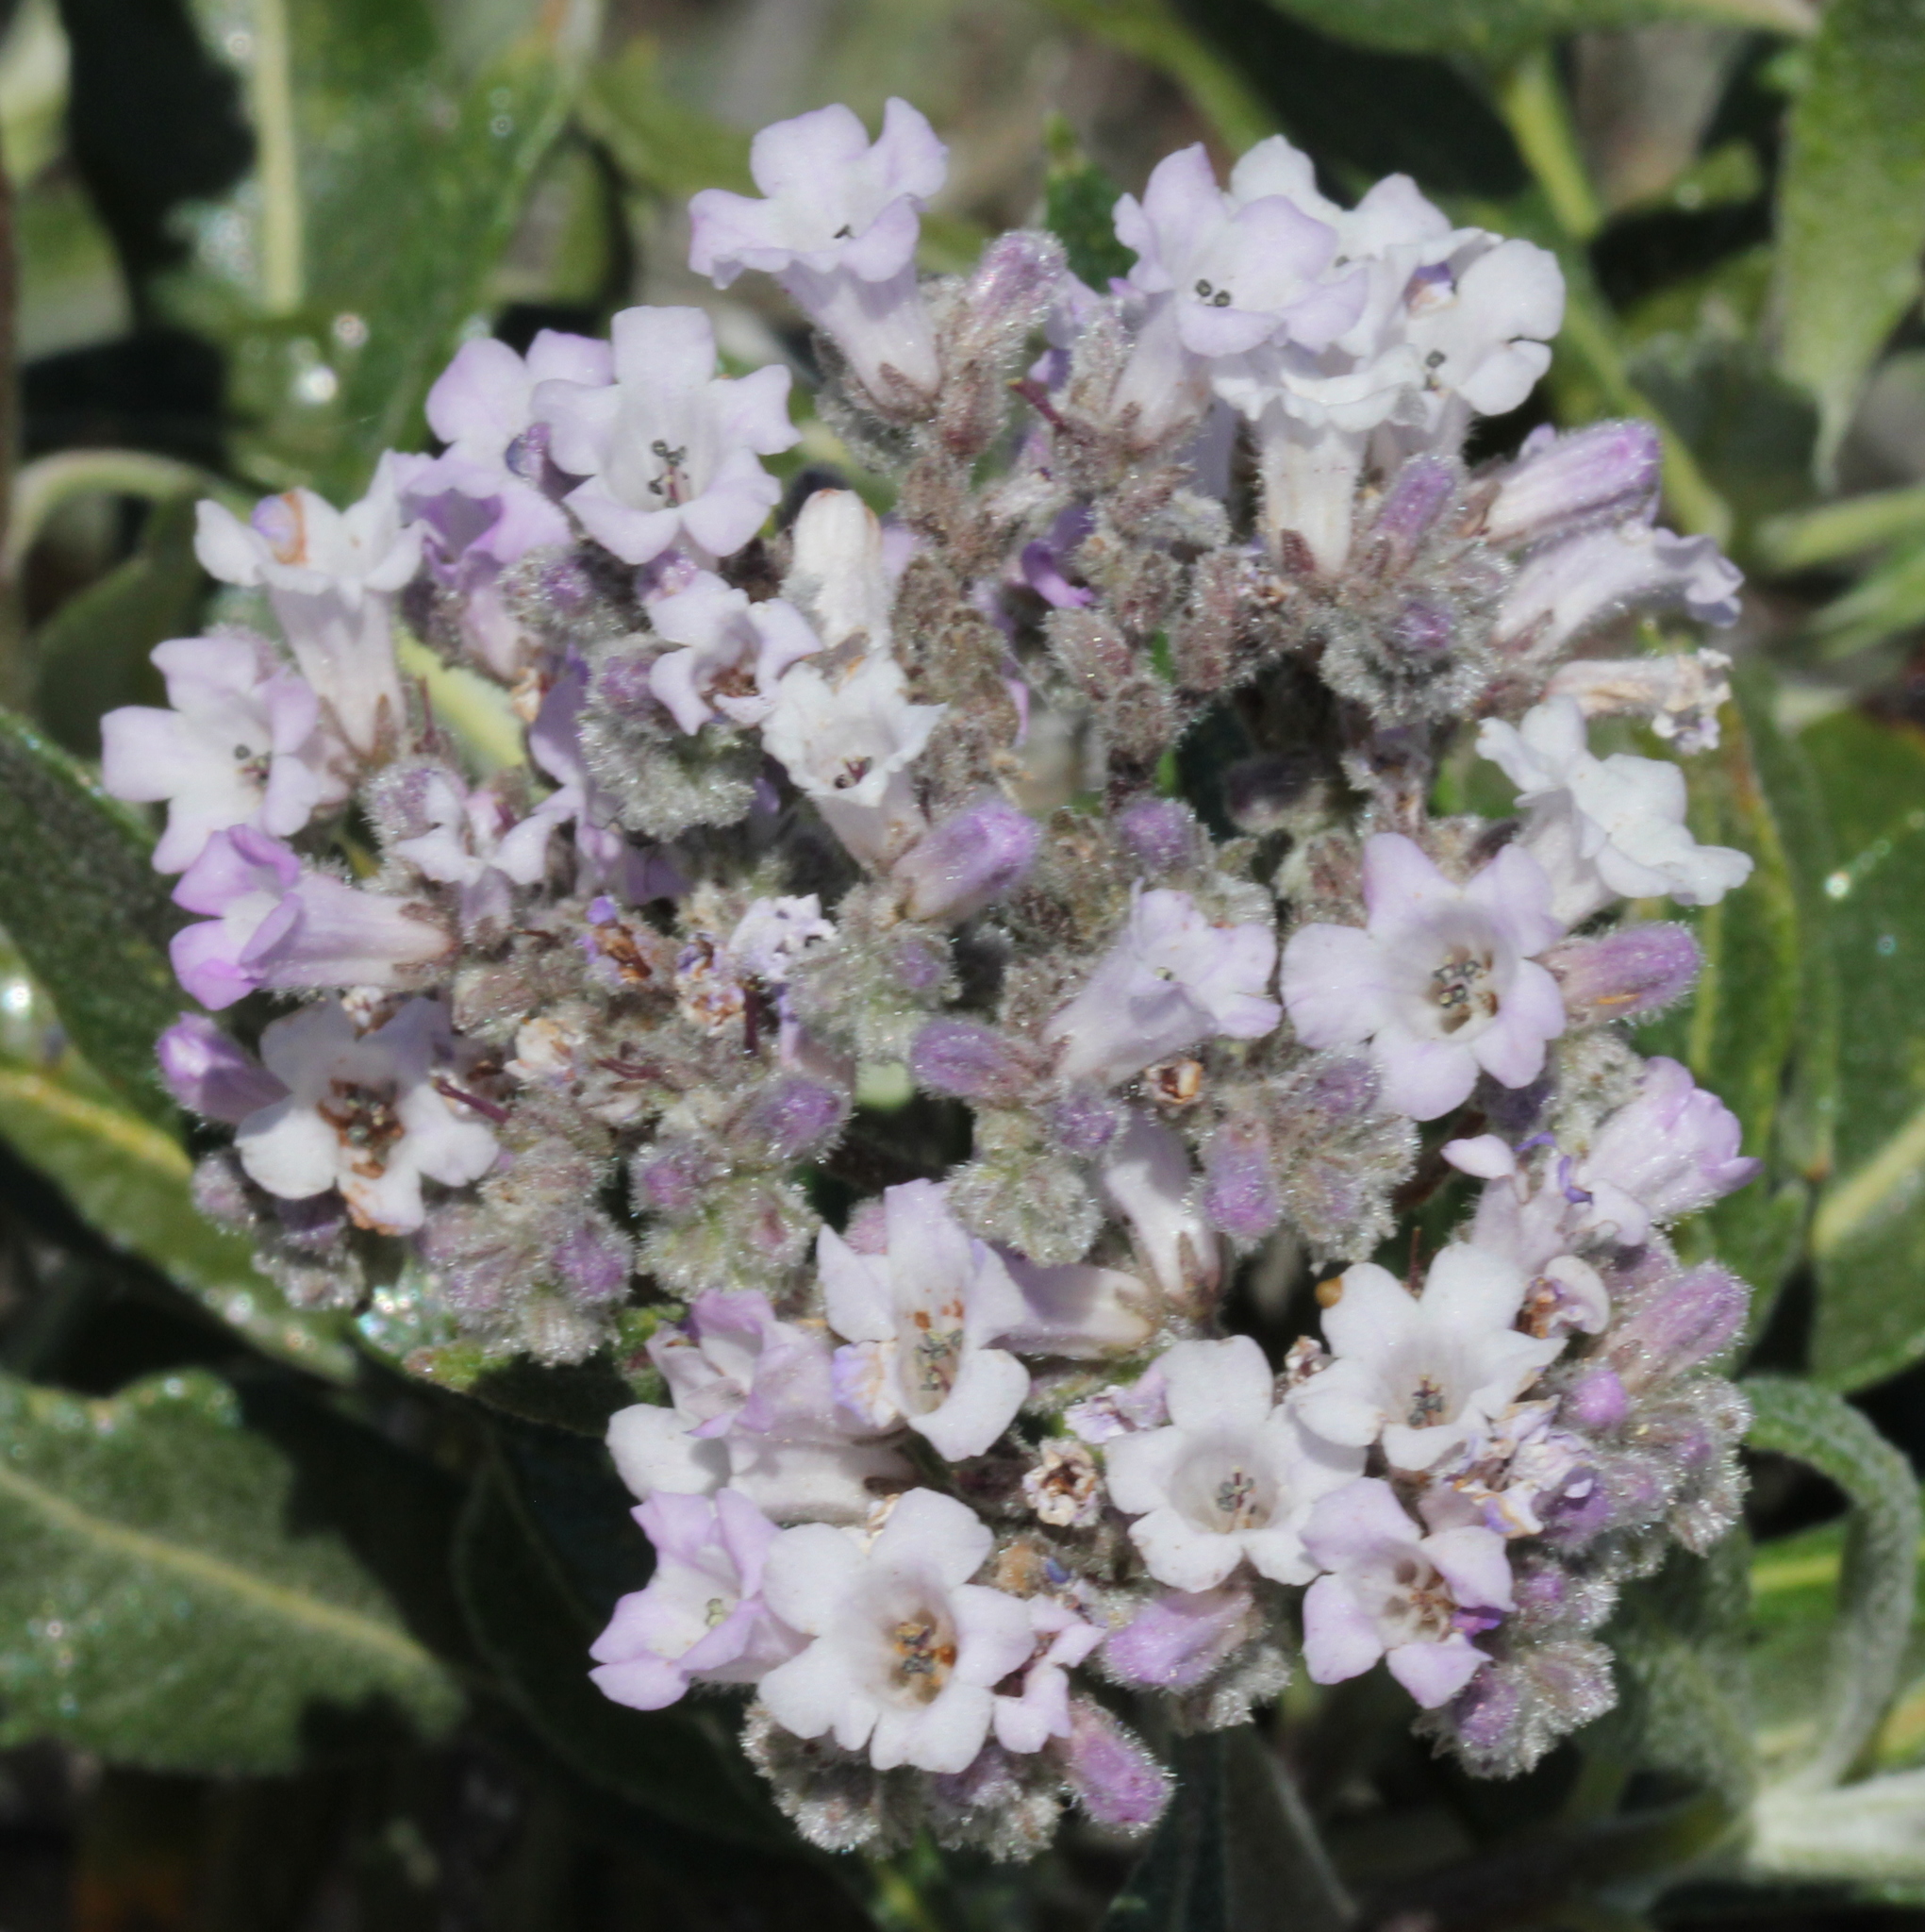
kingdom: Plantae
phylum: Tracheophyta
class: Magnoliopsida
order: Boraginales
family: Namaceae
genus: Eriodictyon
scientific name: Eriodictyon trichocalyx
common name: Hairy yerba-santa
